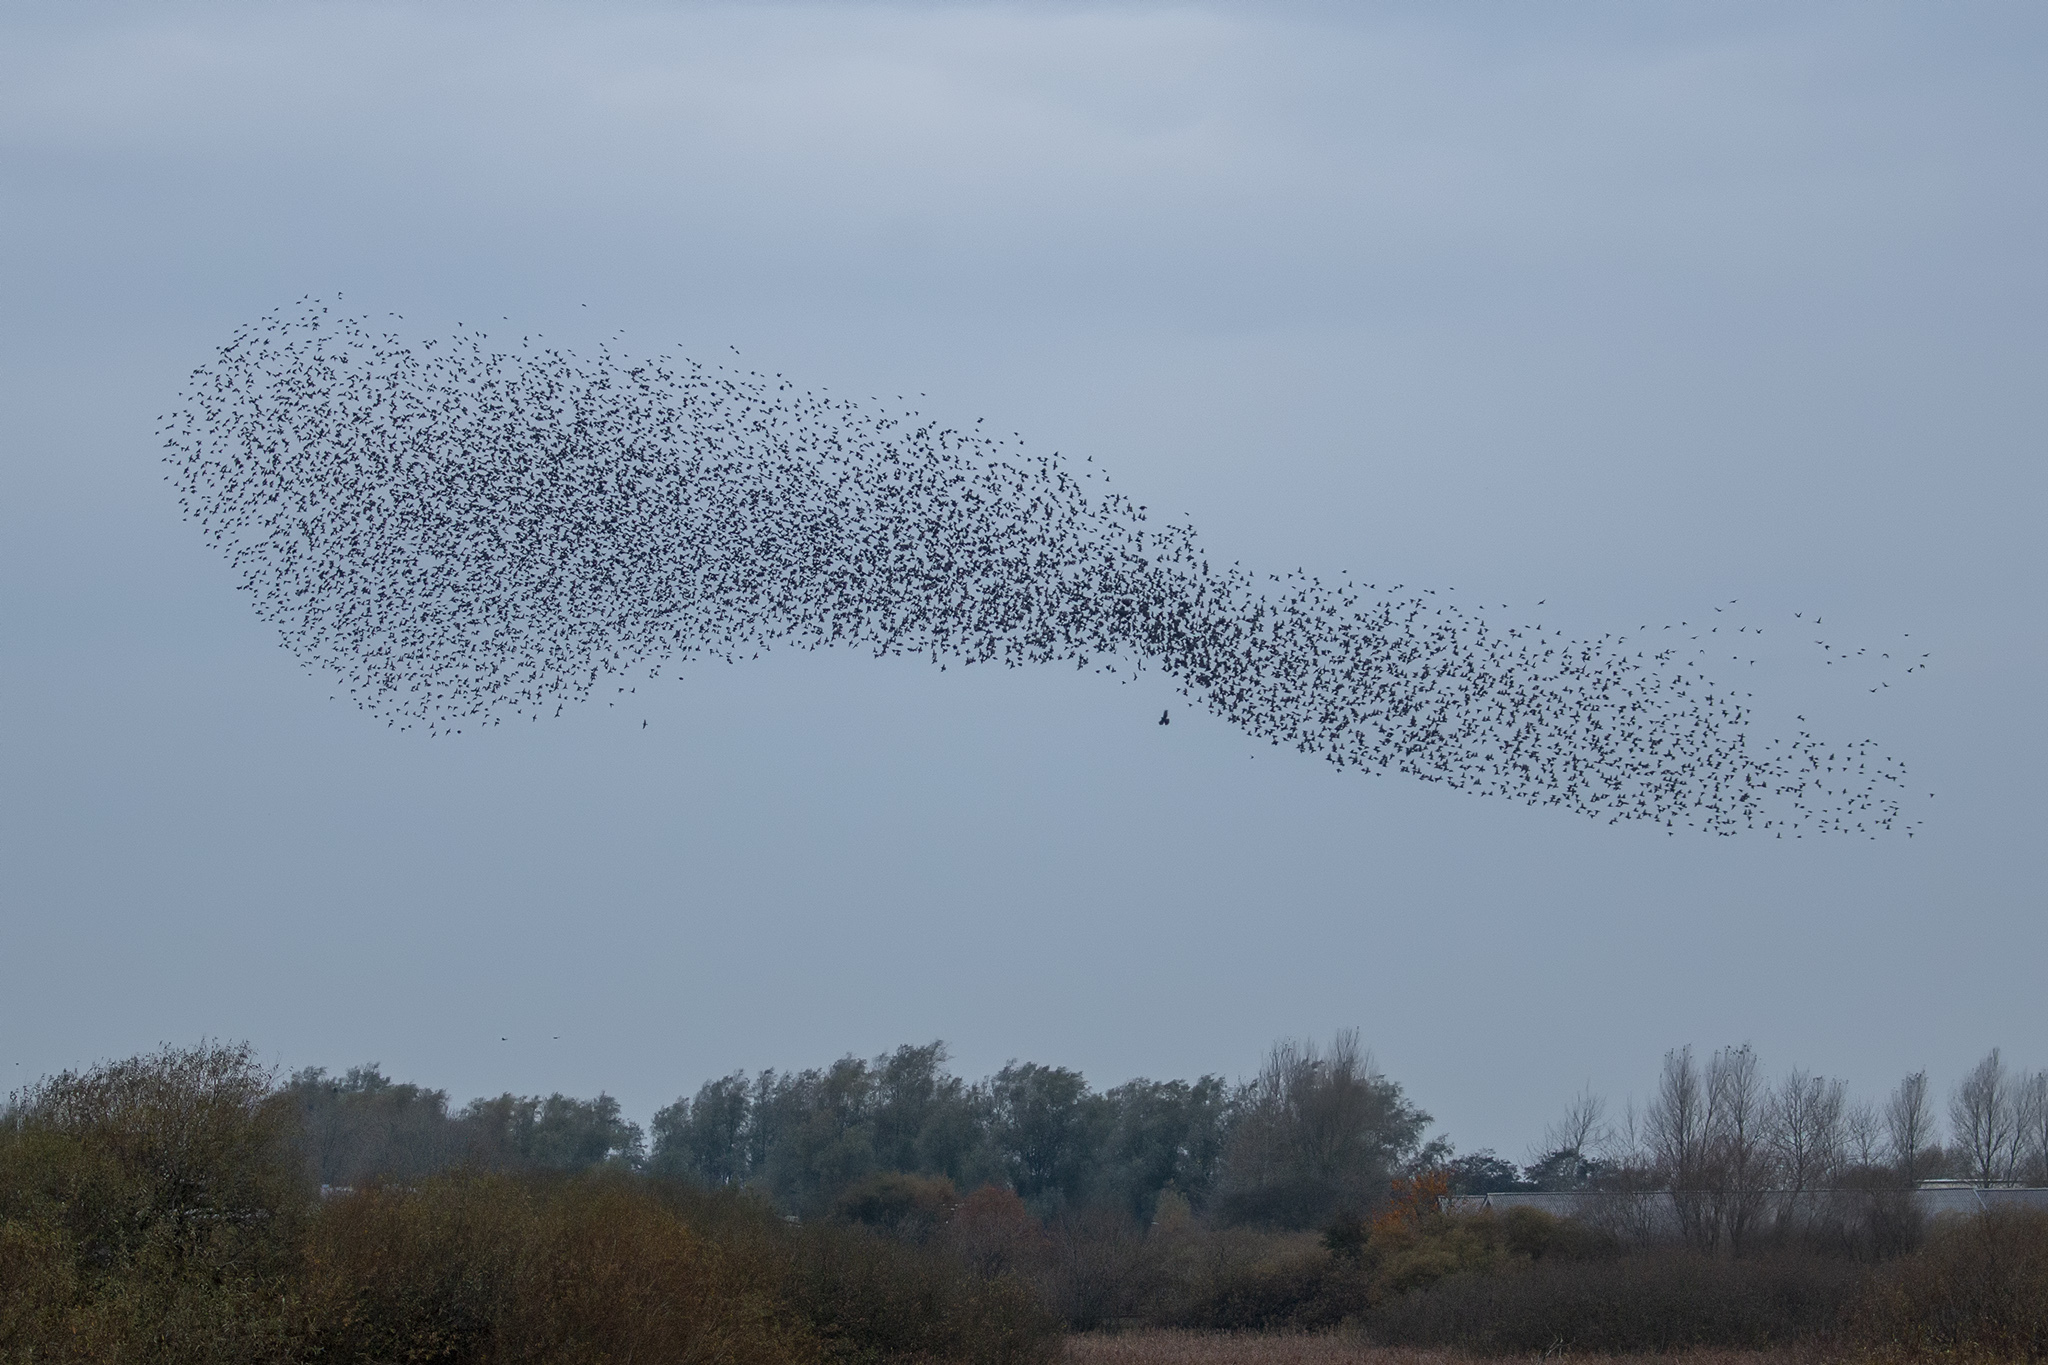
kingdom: Animalia
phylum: Chordata
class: Aves
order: Passeriformes
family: Sturnidae
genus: Sturnus
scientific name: Sturnus vulgaris
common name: Common starling
